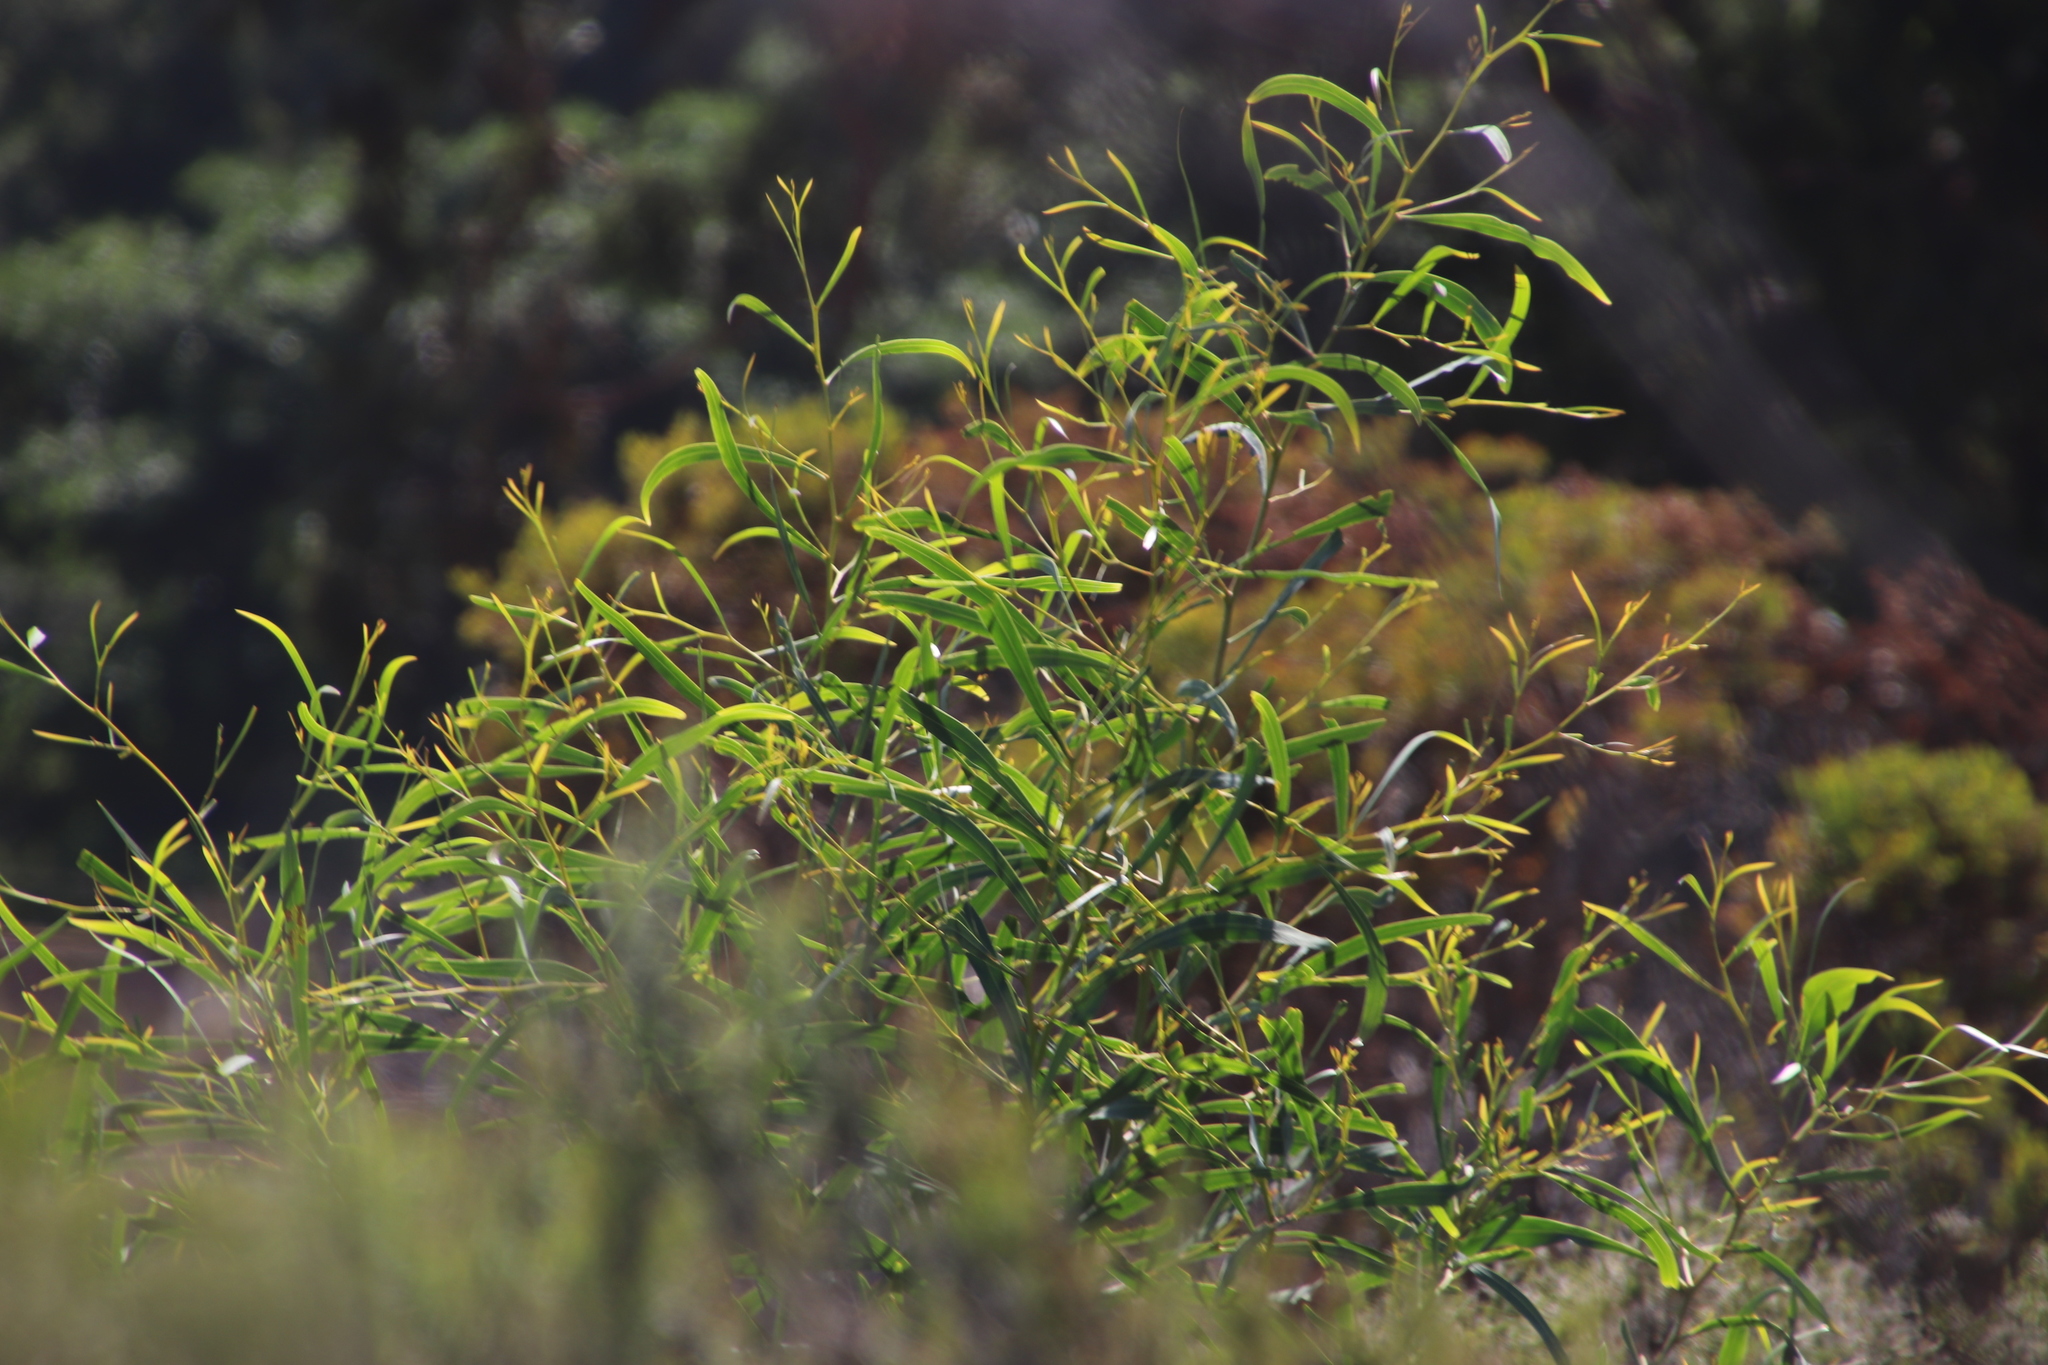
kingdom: Plantae
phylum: Tracheophyta
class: Magnoliopsida
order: Fabales
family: Fabaceae
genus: Acacia
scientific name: Acacia saligna
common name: Orange wattle
